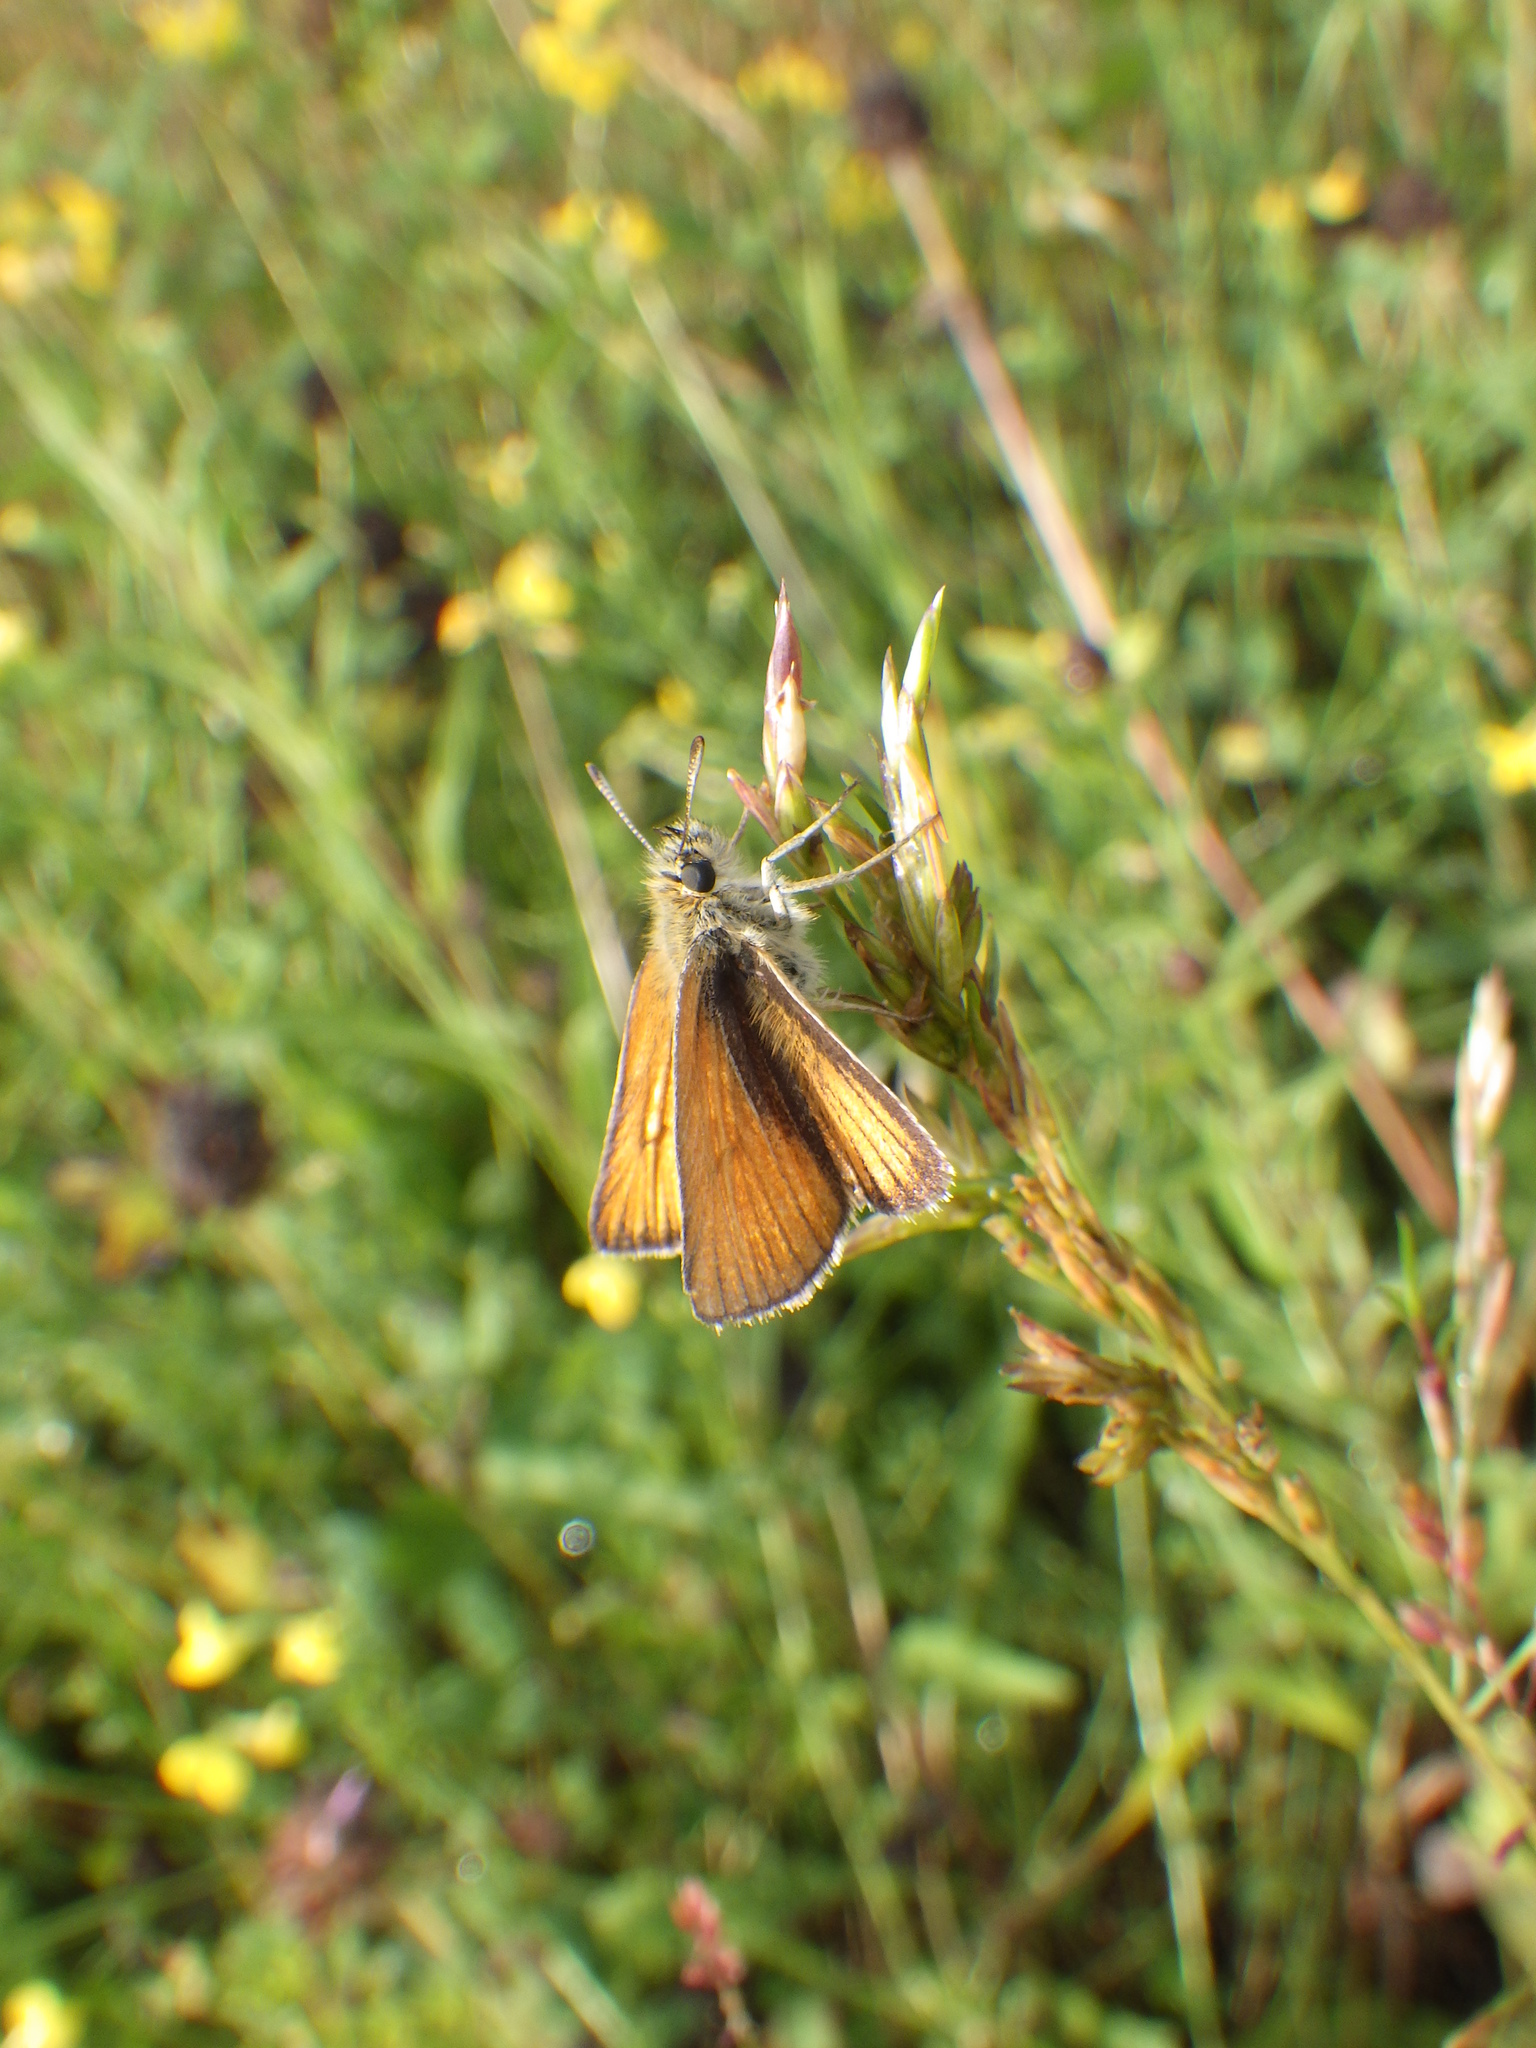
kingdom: Animalia
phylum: Arthropoda
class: Insecta
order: Lepidoptera
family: Hesperiidae
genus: Thymelicus
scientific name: Thymelicus lineola
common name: Essex skipper
